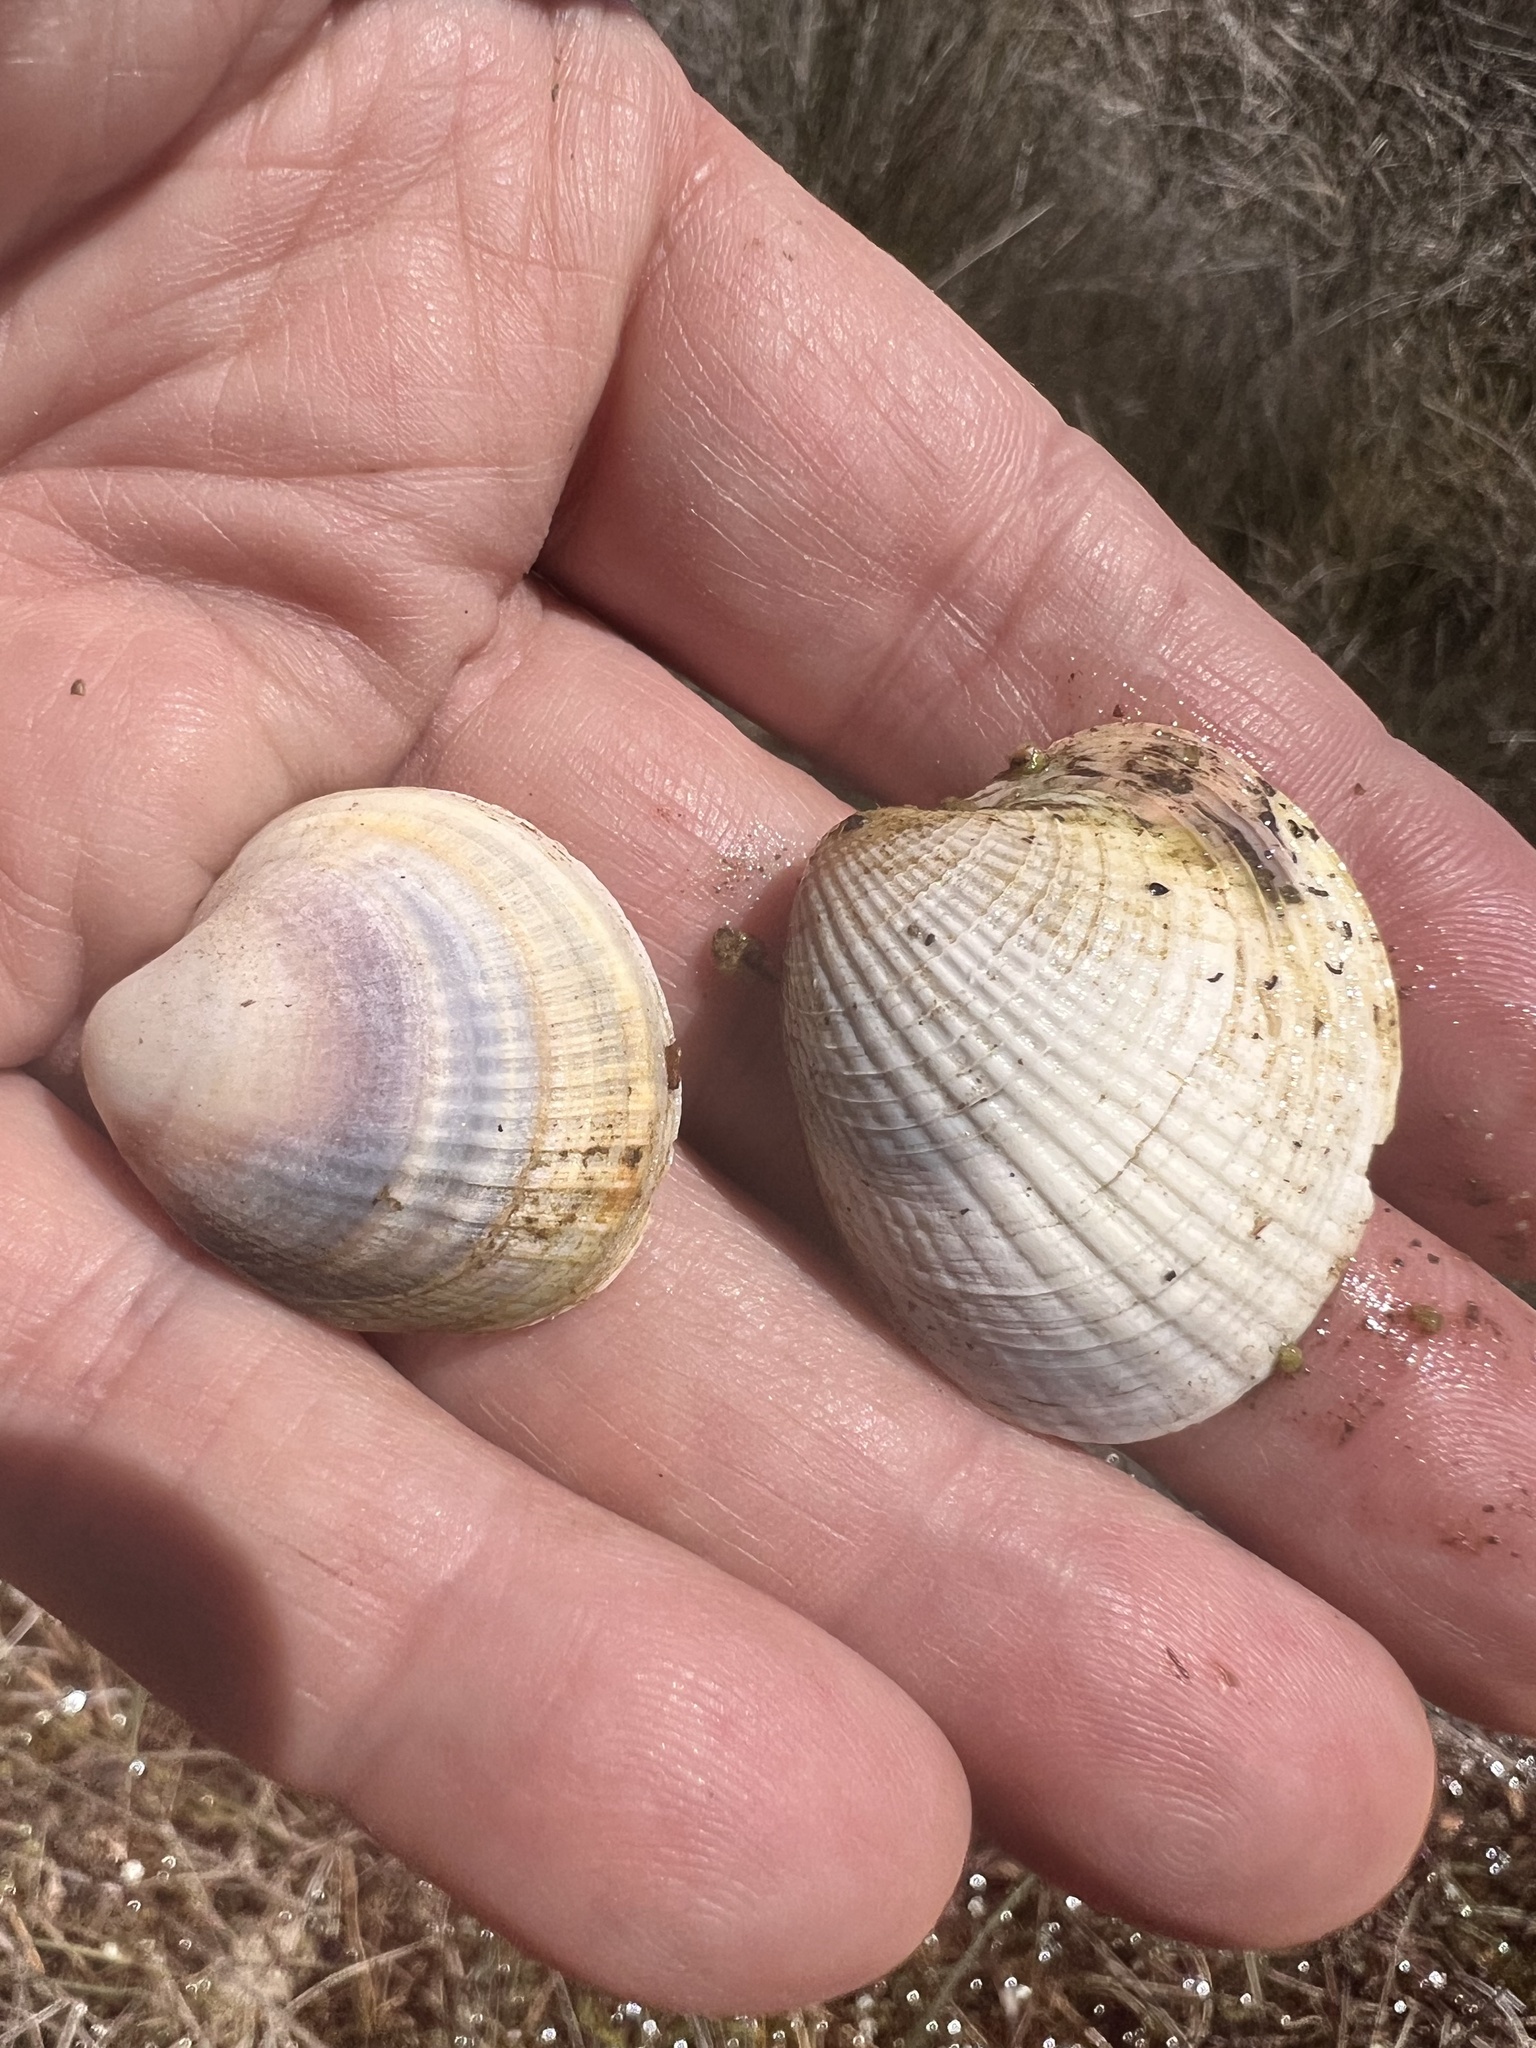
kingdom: Animalia
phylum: Mollusca
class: Bivalvia
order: Venerida
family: Veneridae
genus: Austrovenus
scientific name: Austrovenus stutchburyi
